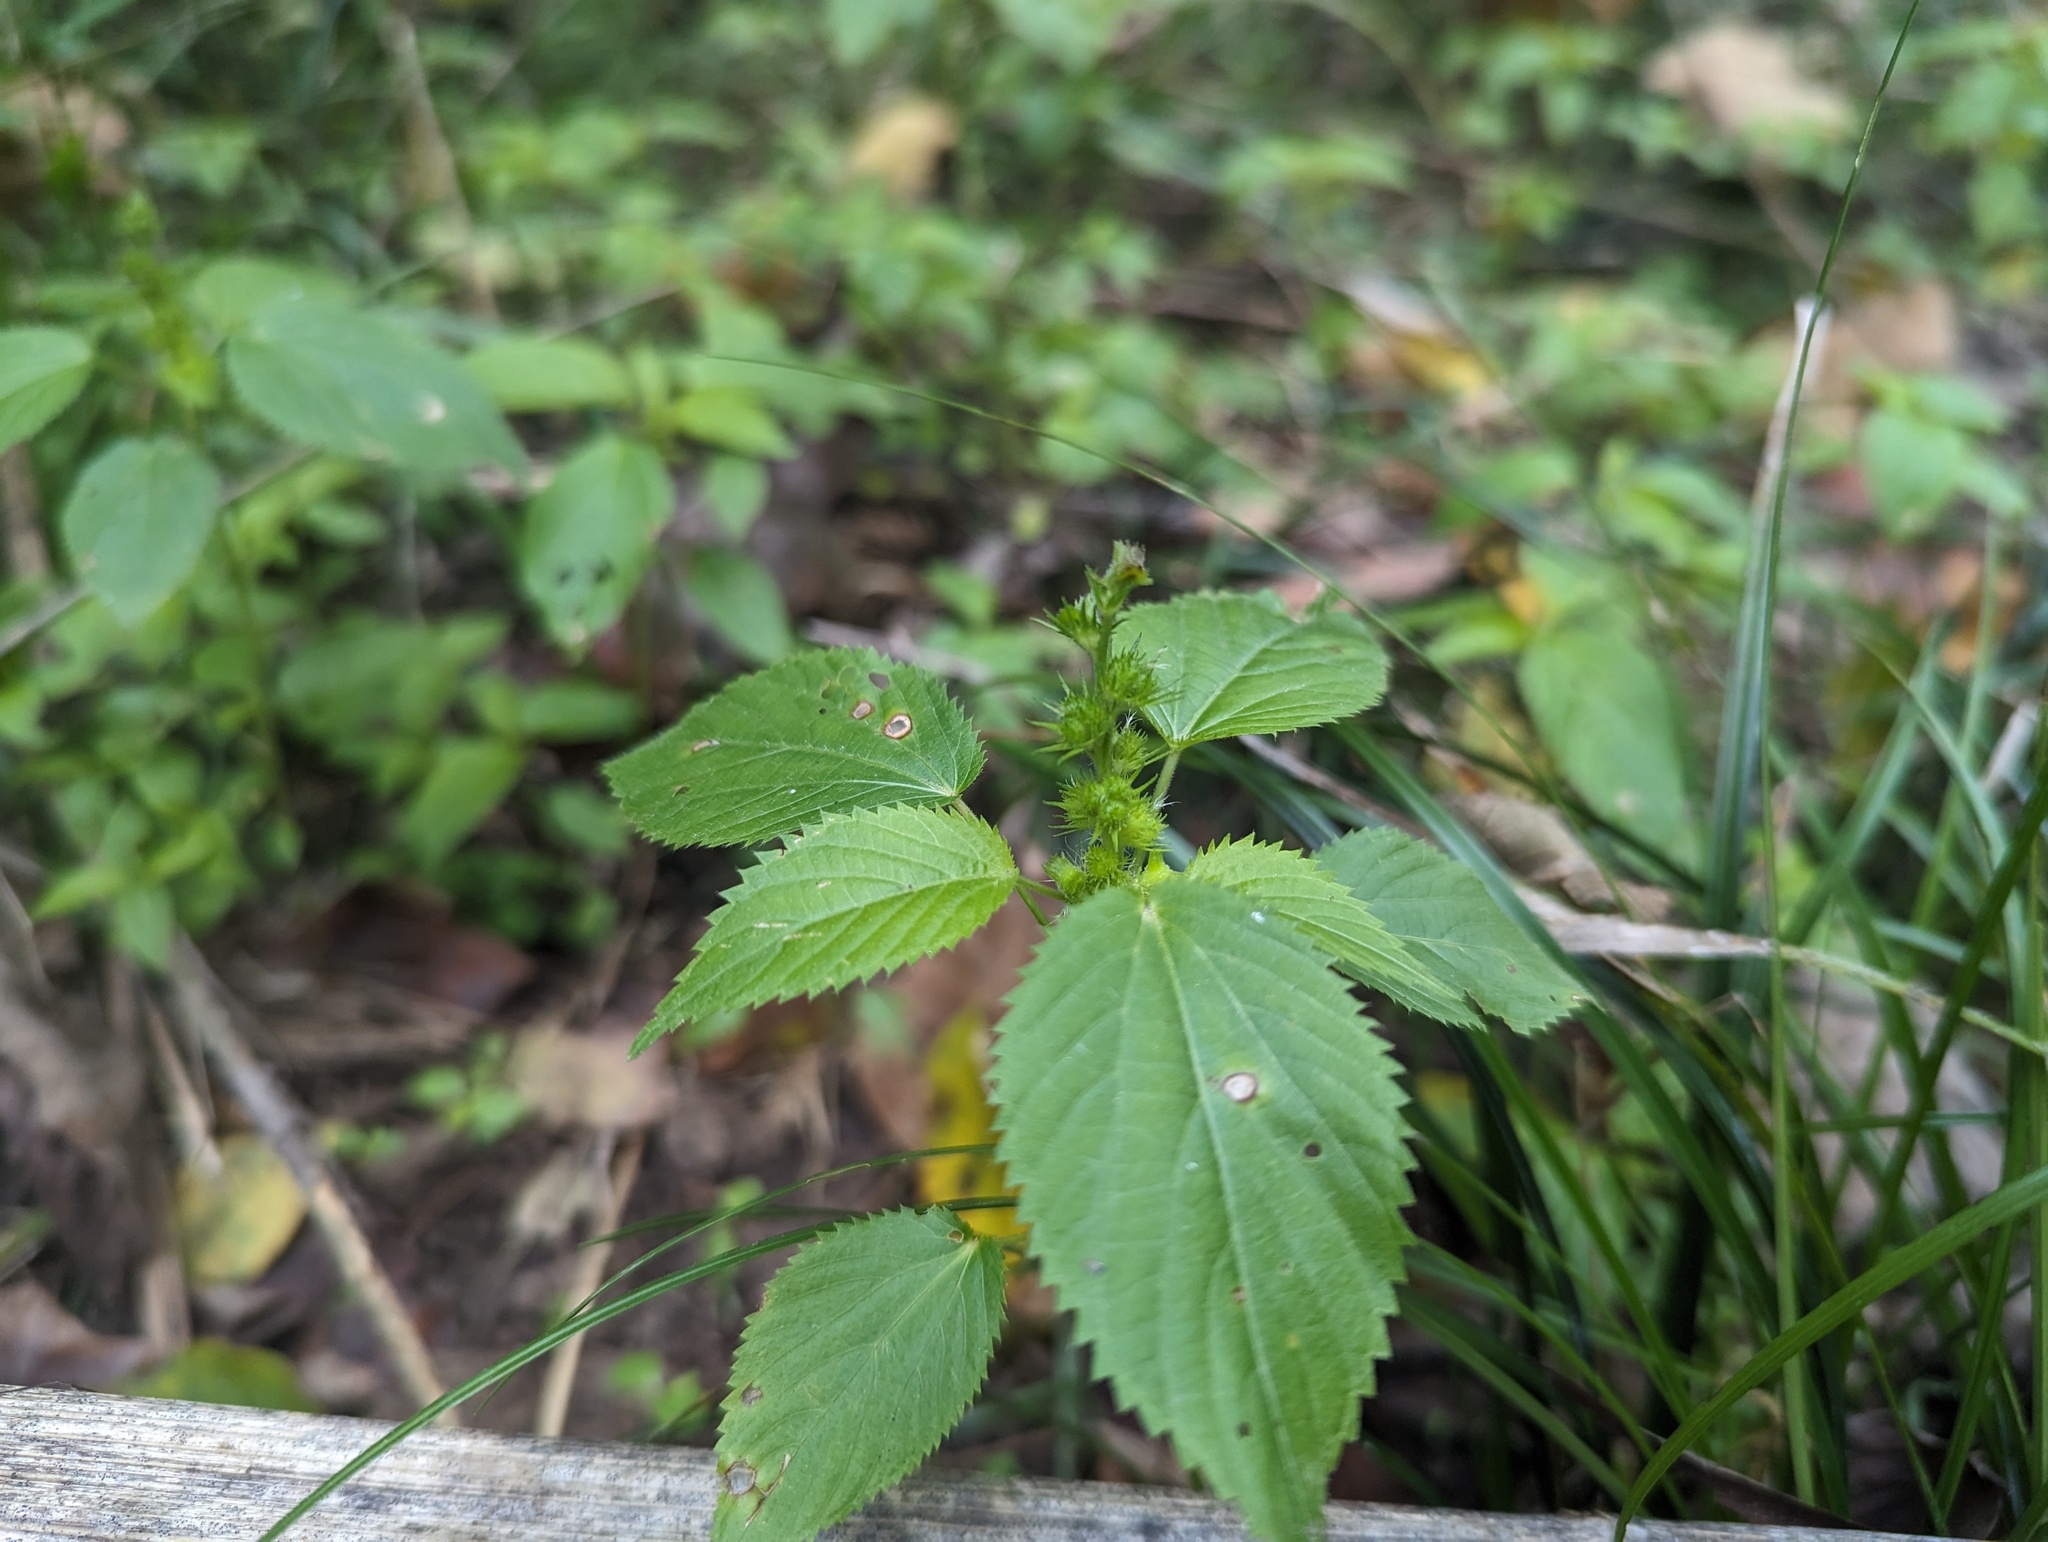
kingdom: Plantae
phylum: Tracheophyta
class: Magnoliopsida
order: Malpighiales
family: Euphorbiaceae
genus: Acalypha
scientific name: Acalypha ostryifolia
